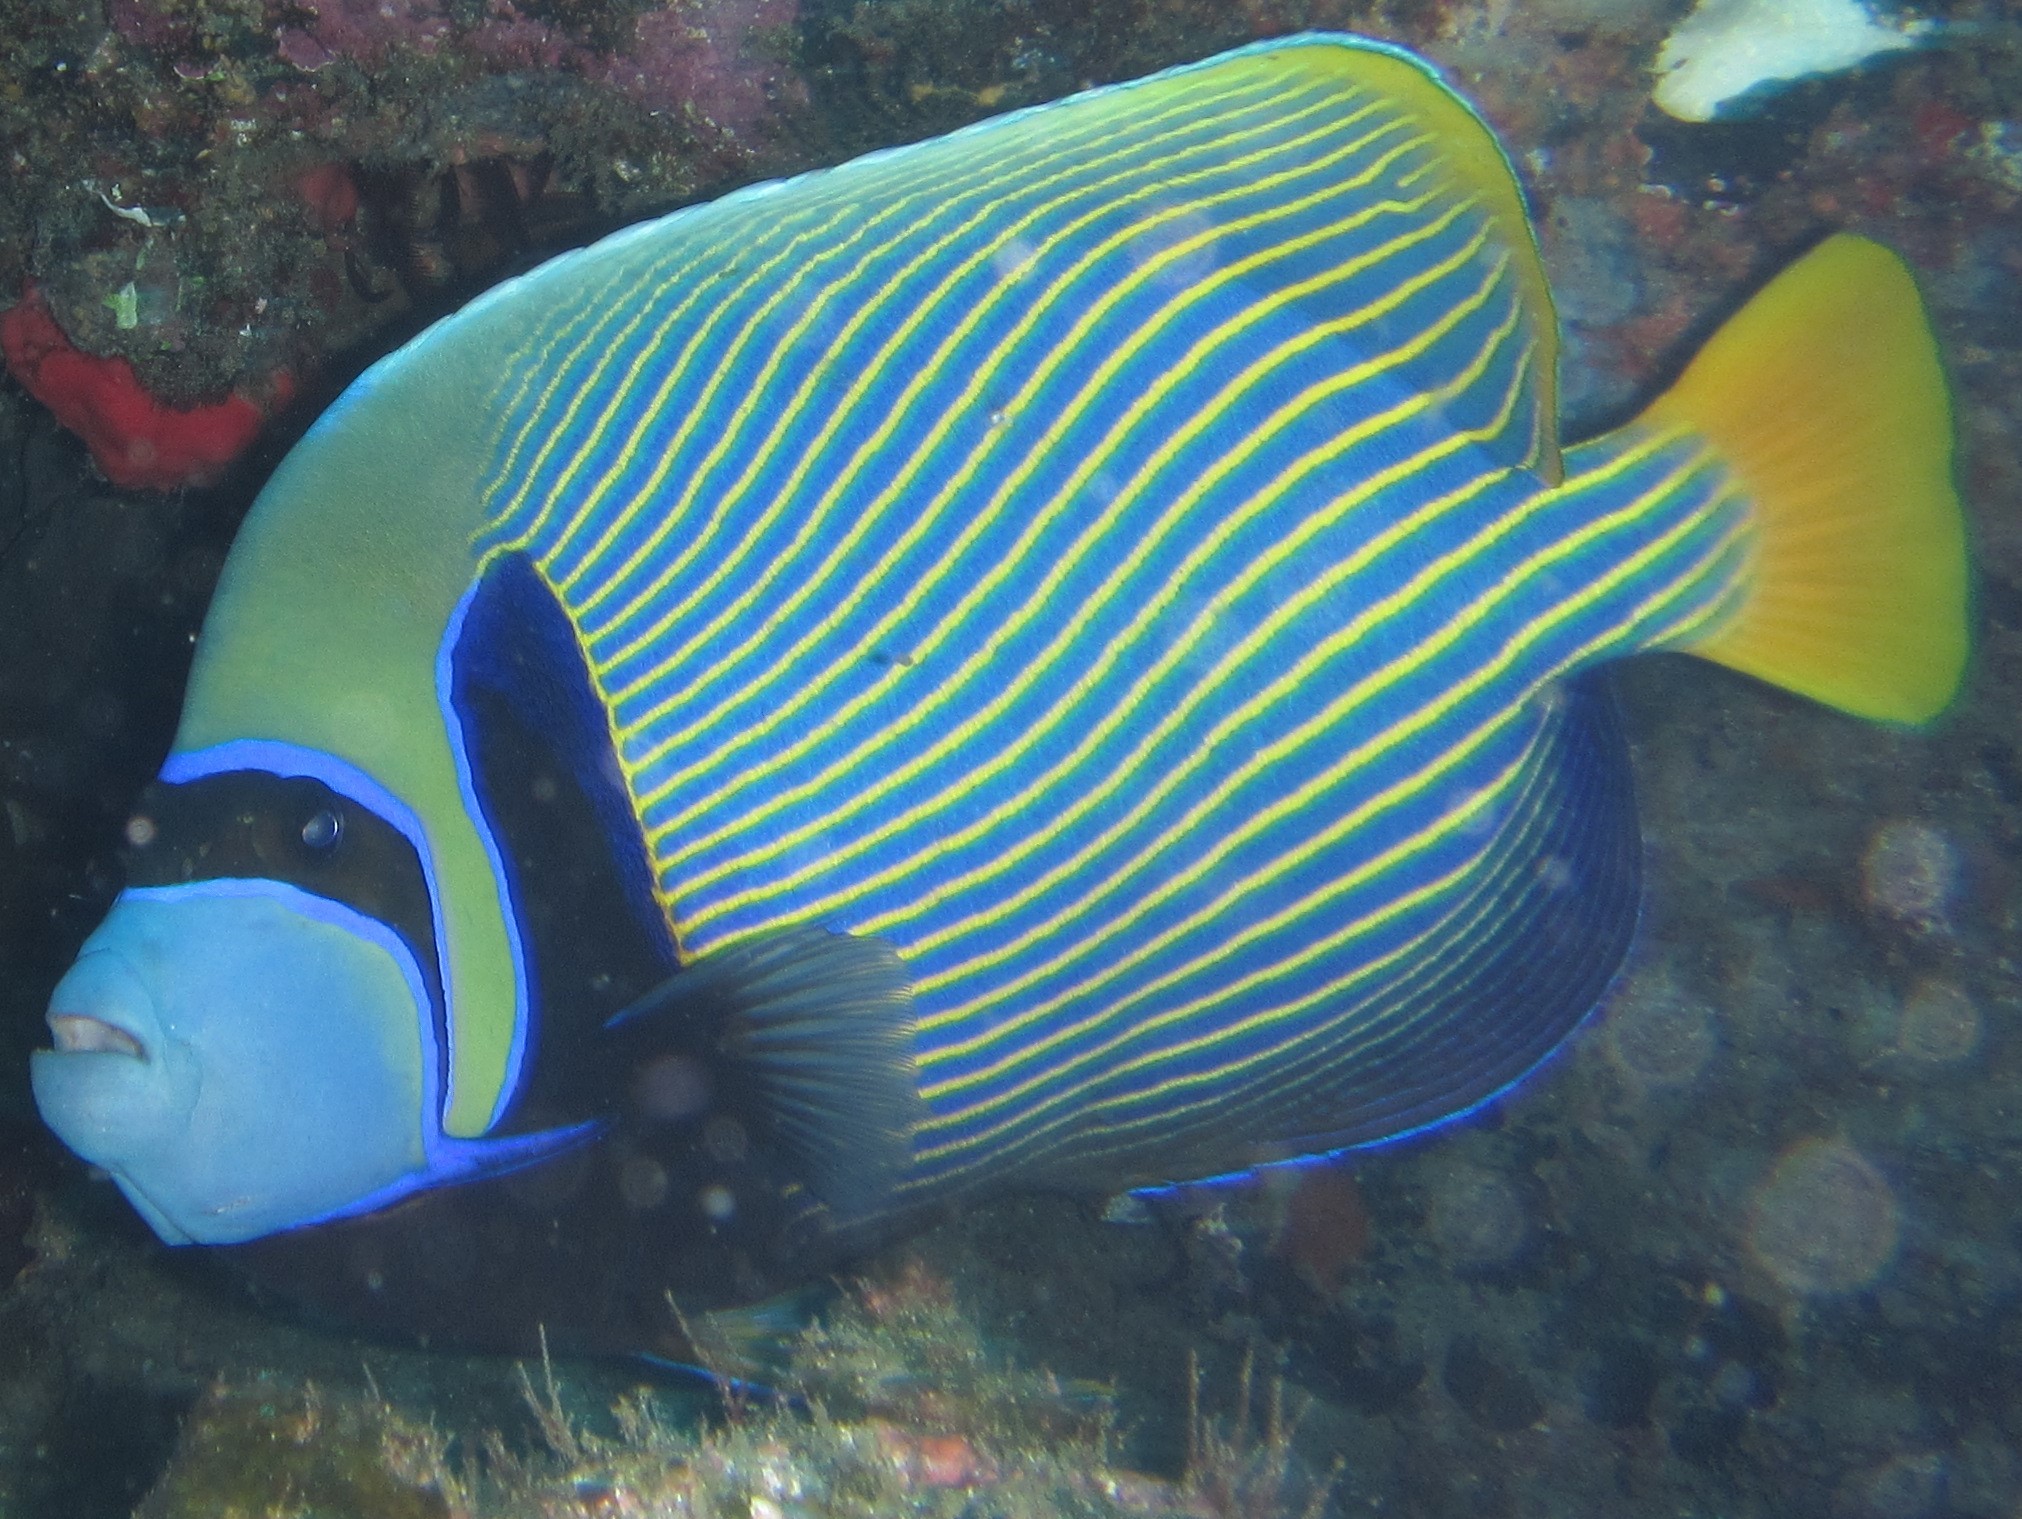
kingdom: Animalia
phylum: Chordata
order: Perciformes
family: Pomacanthidae
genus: Pomacanthus
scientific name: Pomacanthus imperator
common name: Emperor angelfish
